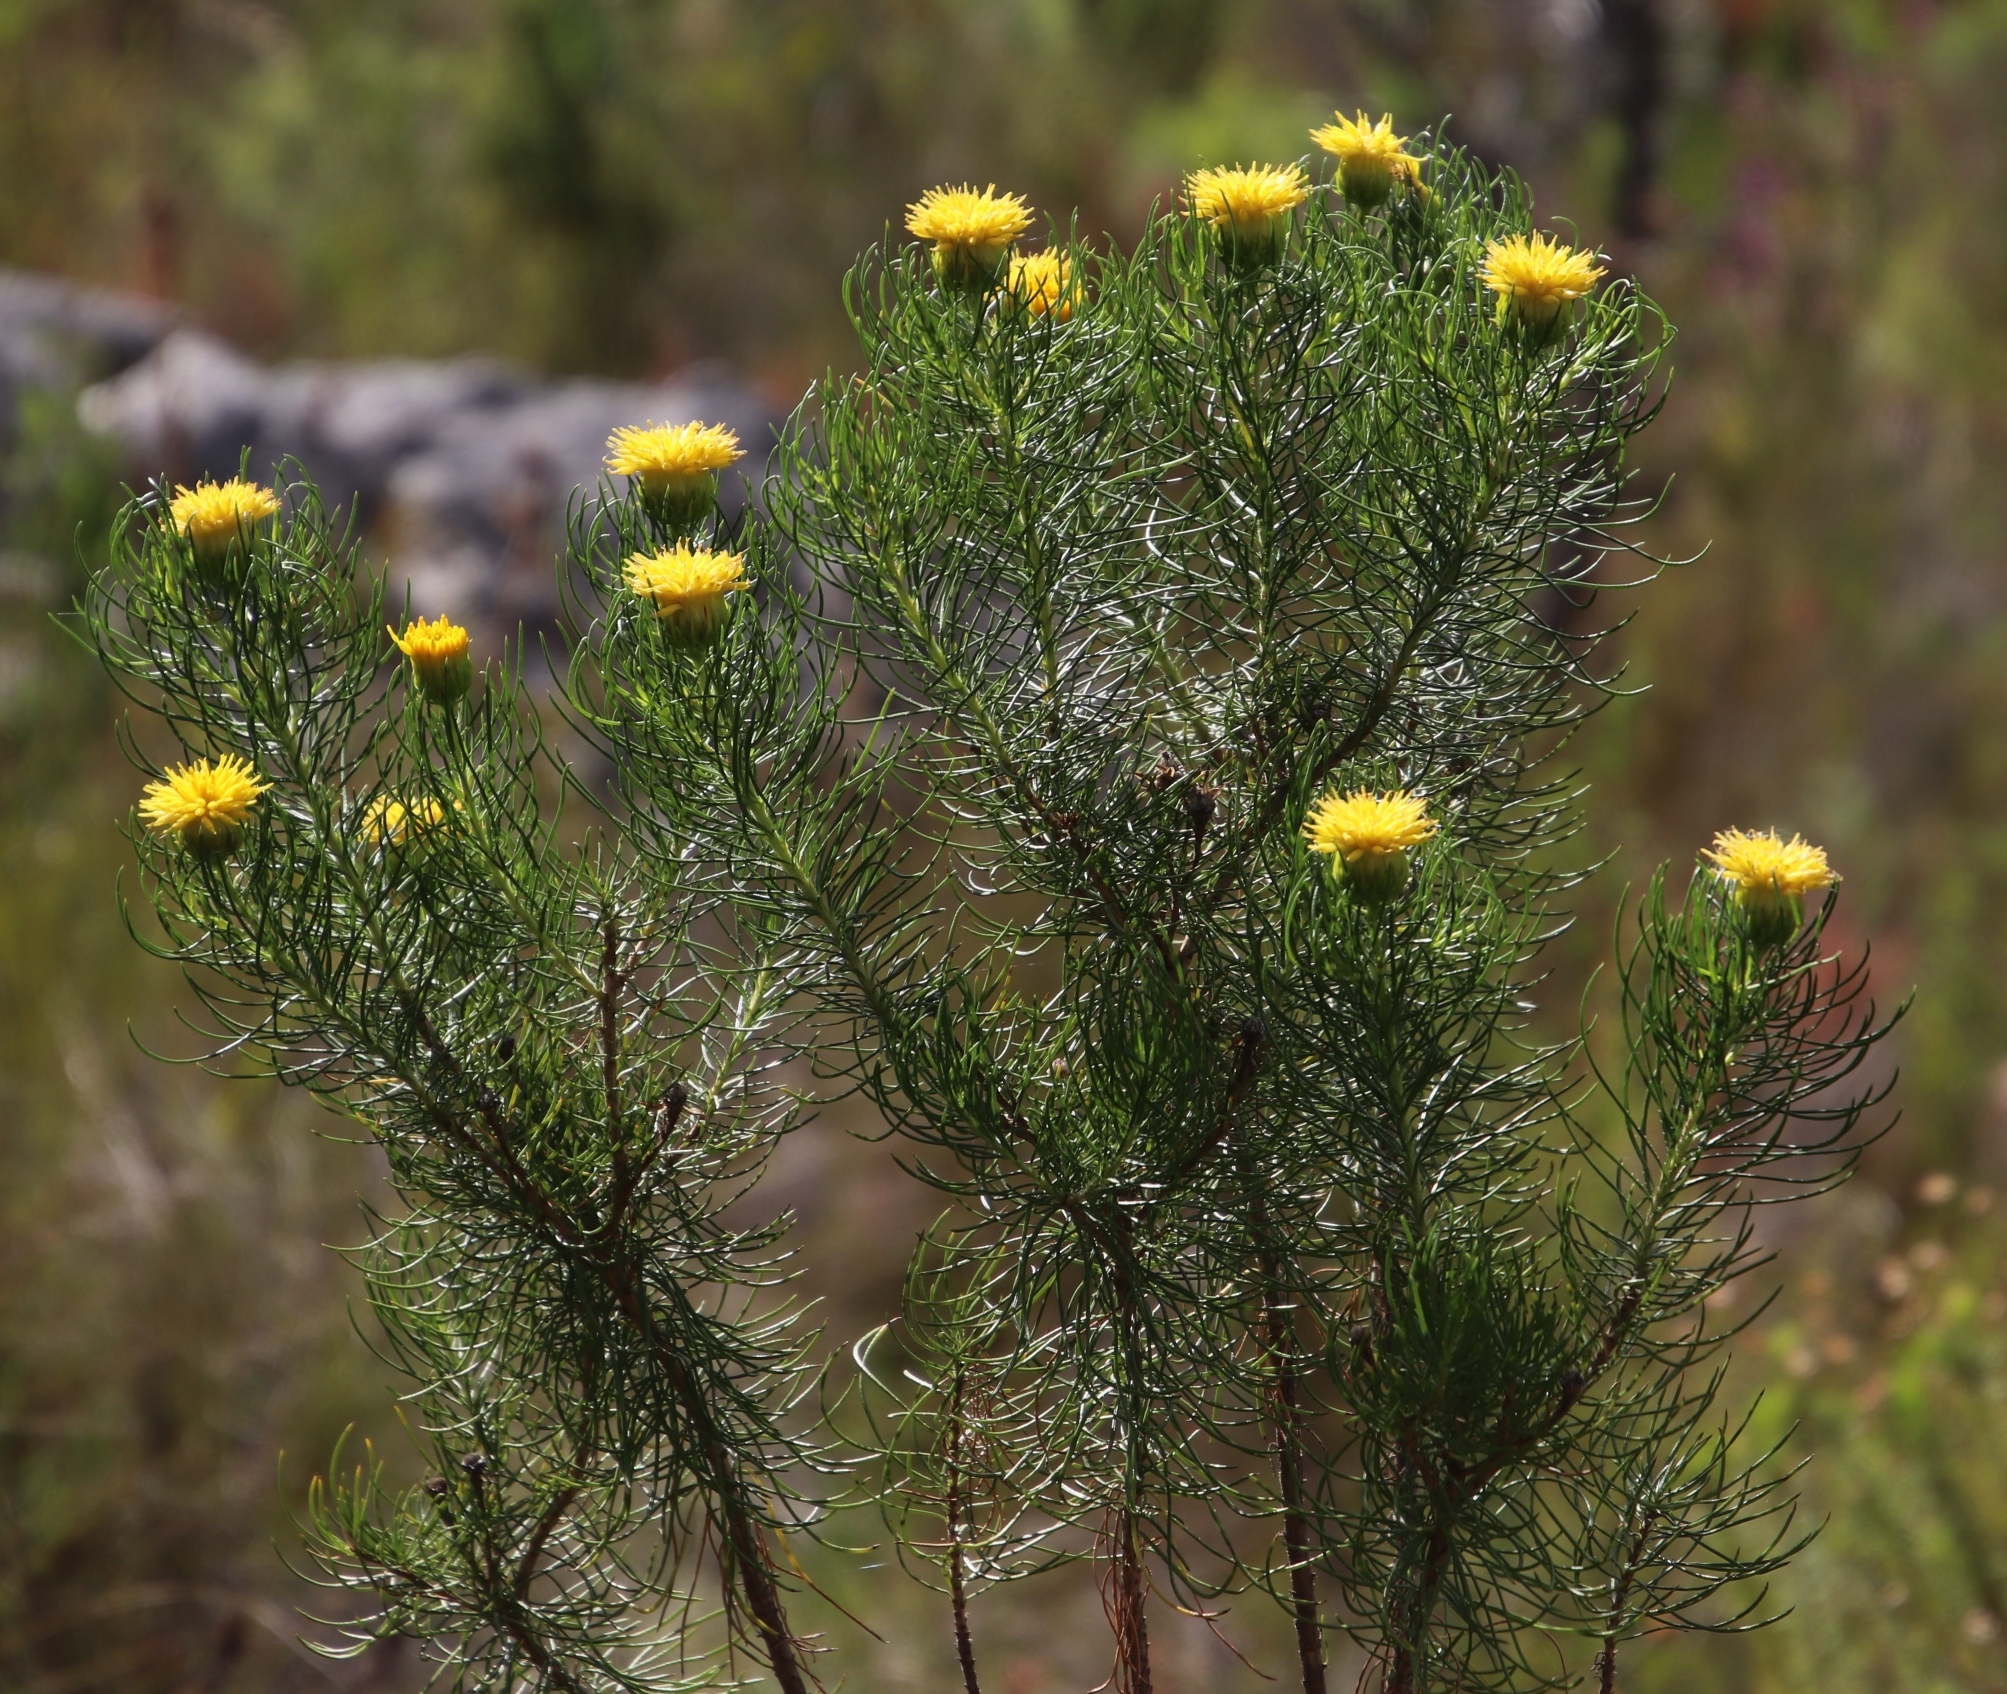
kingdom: Plantae
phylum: Tracheophyta
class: Magnoliopsida
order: Asterales
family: Asteraceae
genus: Pteronia
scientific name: Pteronia camphorata
